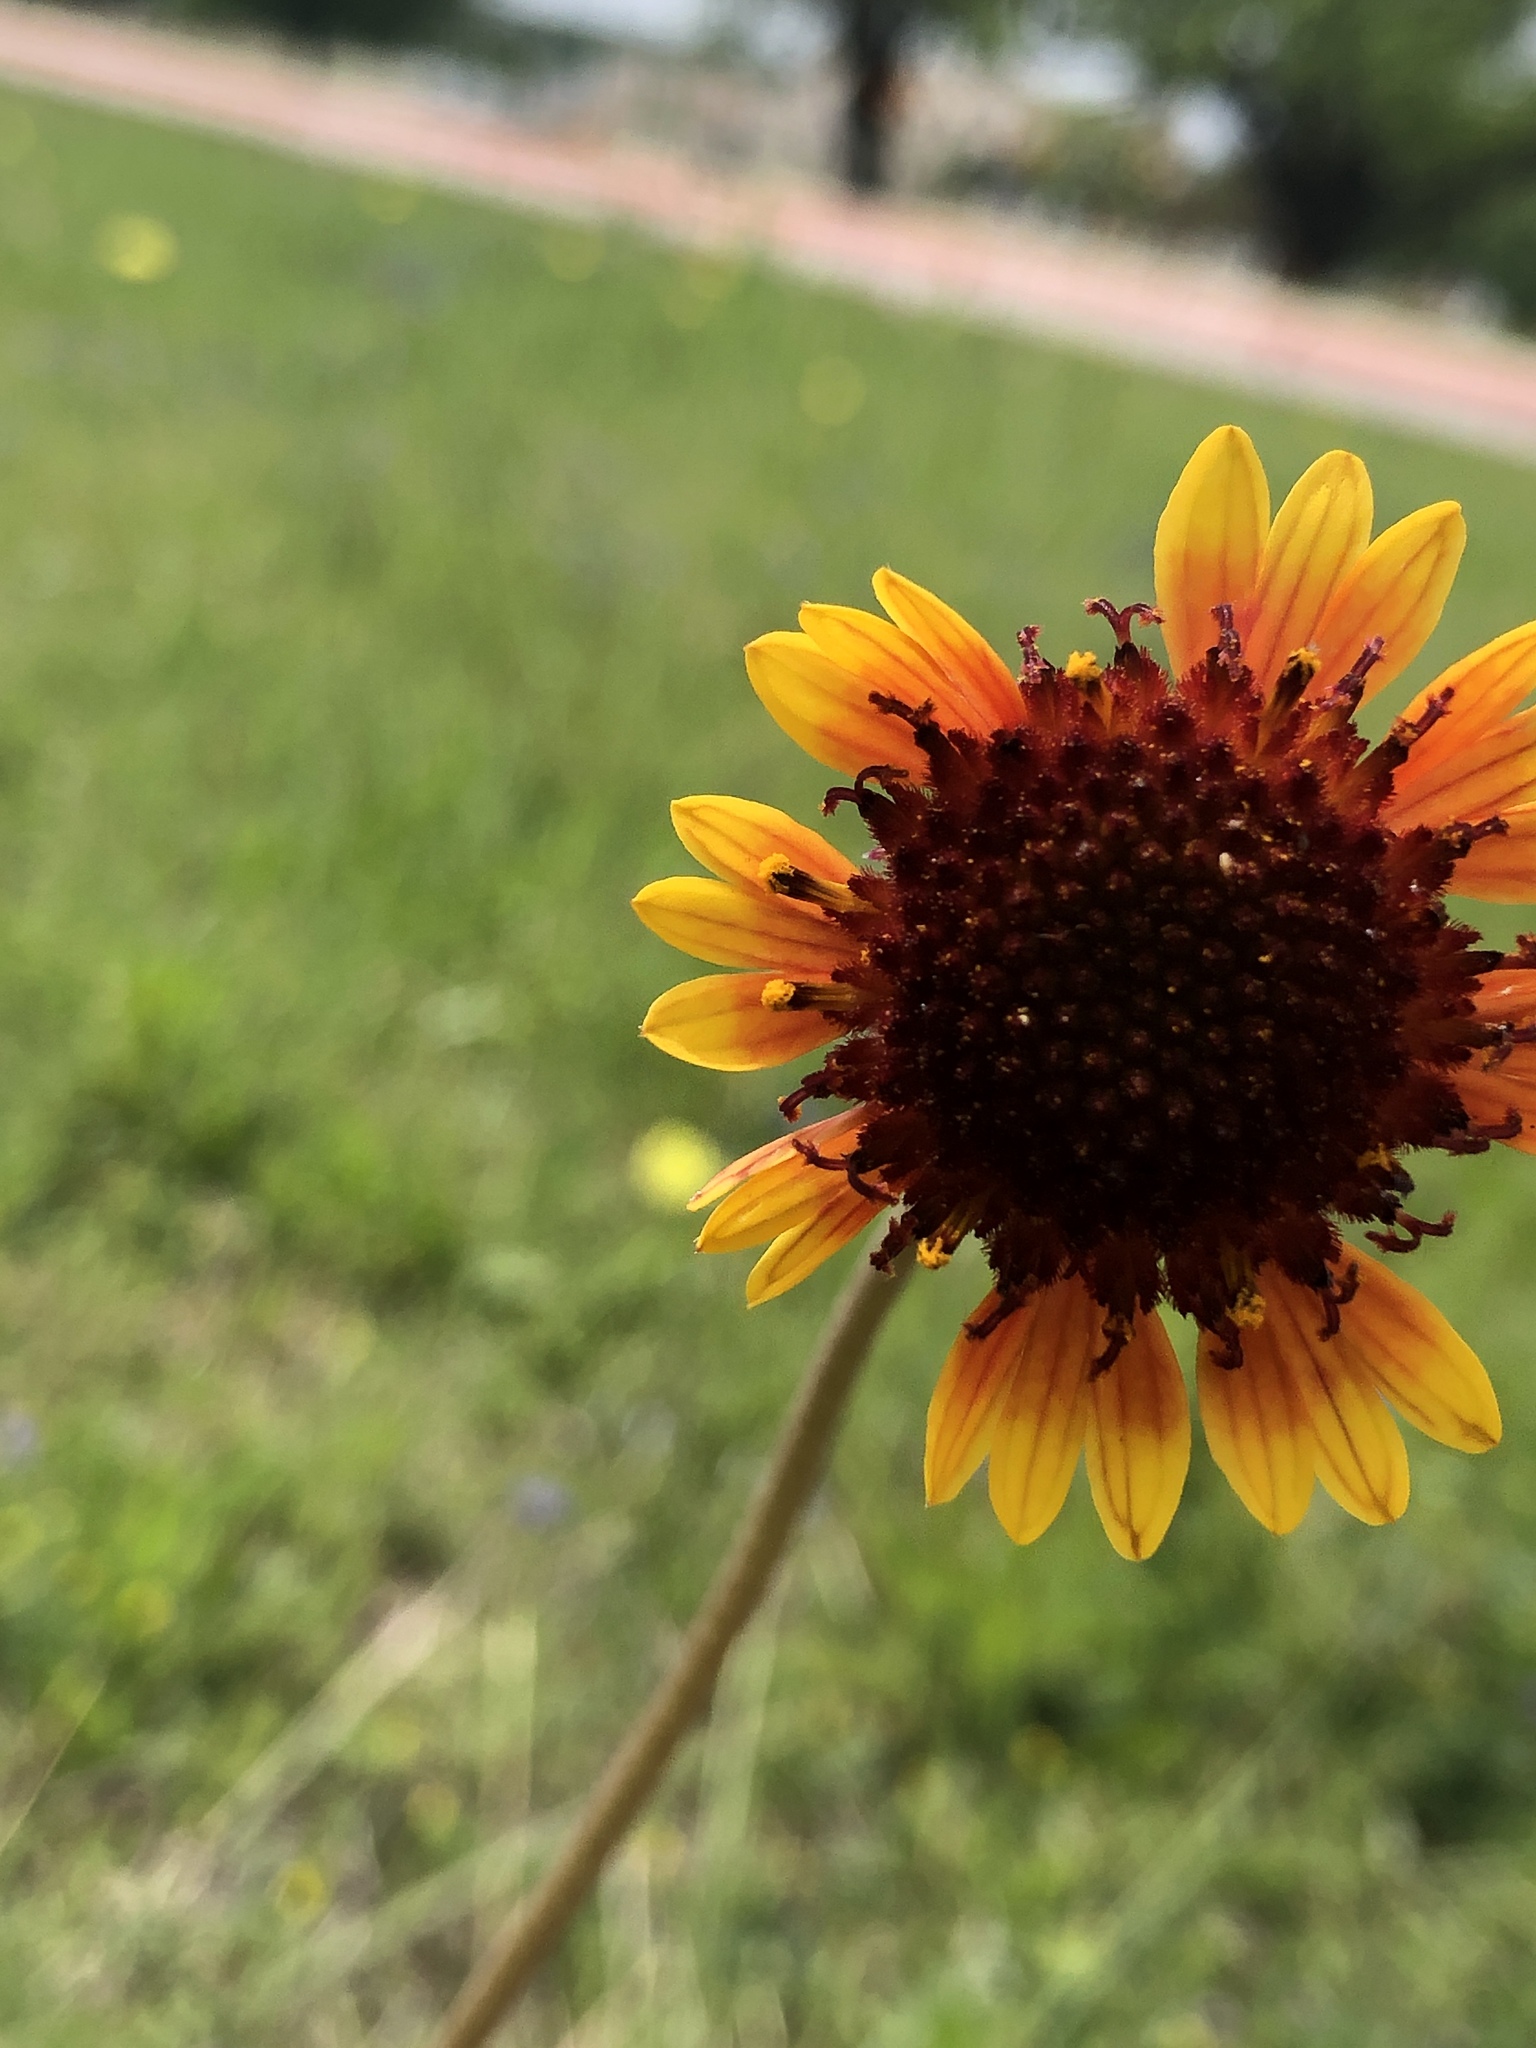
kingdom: Plantae
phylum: Tracheophyta
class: Magnoliopsida
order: Asterales
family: Asteraceae
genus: Gaillardia
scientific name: Gaillardia suavis
